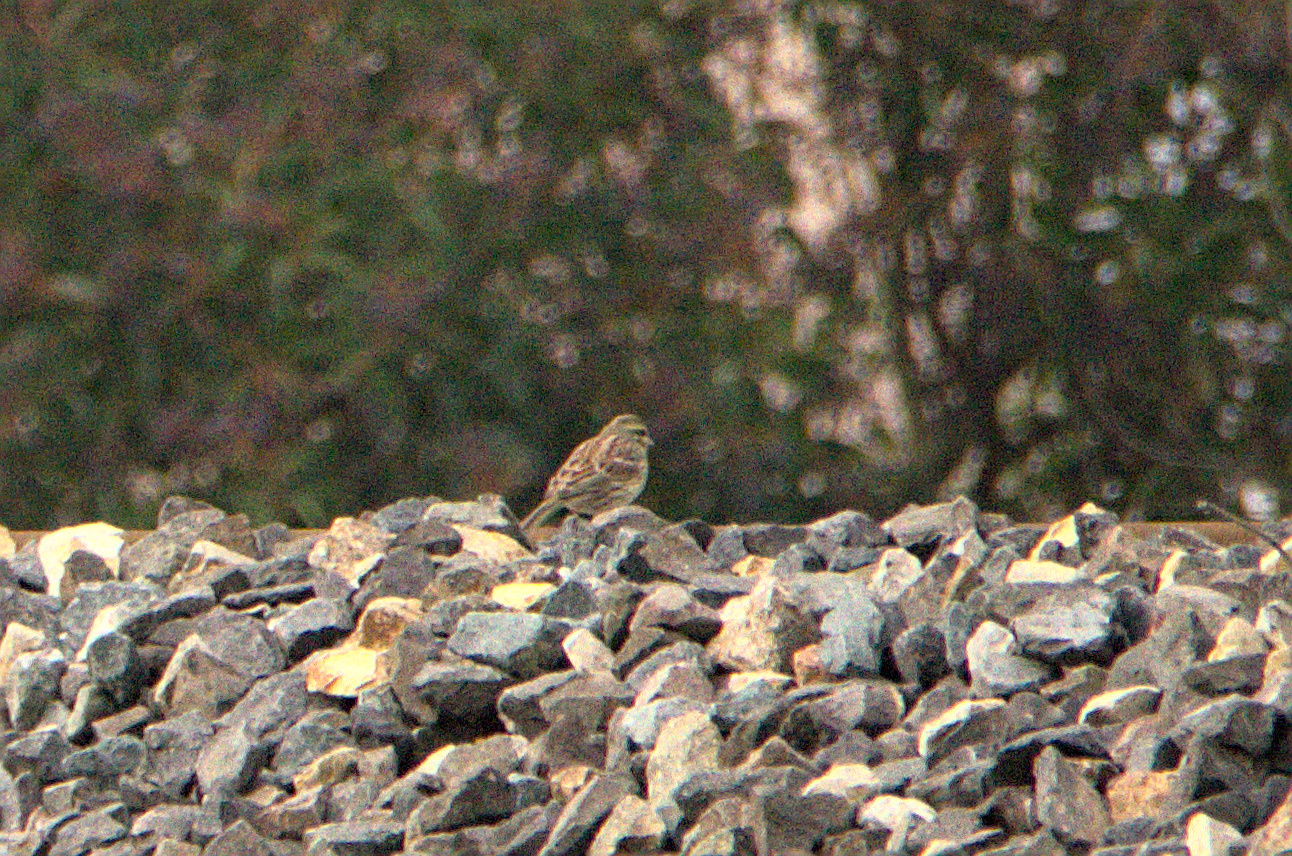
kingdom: Animalia
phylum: Chordata
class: Aves
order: Passeriformes
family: Emberizidae
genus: Emberiza
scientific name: Emberiza cirlus
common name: Cirl bunting
